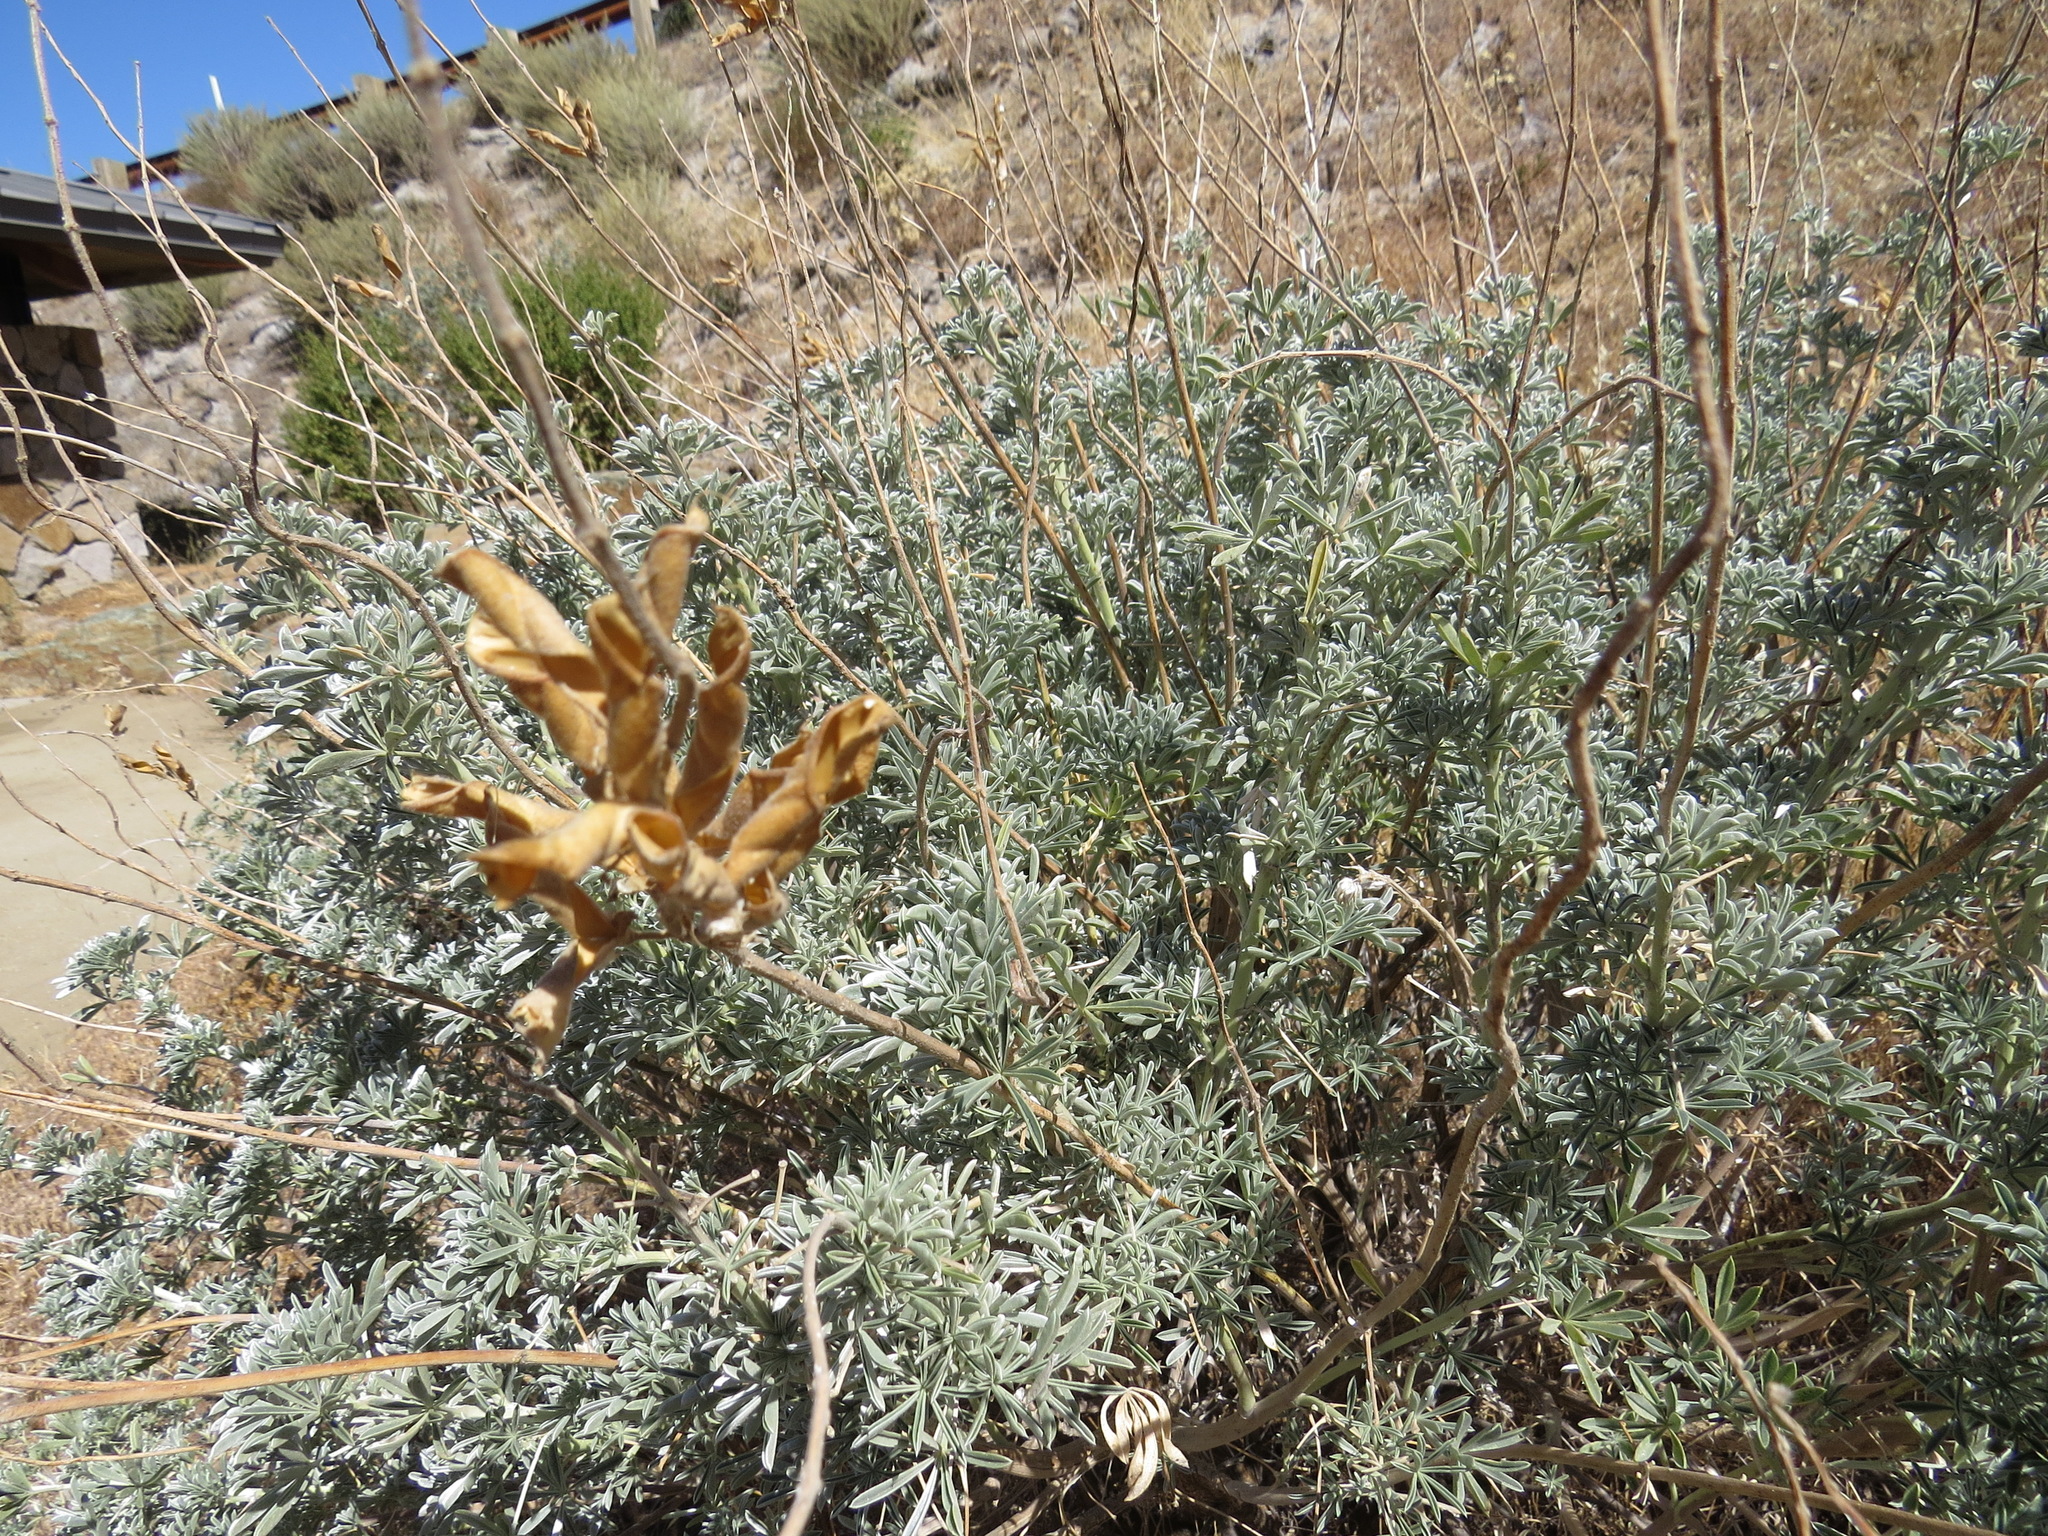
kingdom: Plantae
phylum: Tracheophyta
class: Magnoliopsida
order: Fabales
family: Fabaceae
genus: Lupinus
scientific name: Lupinus albifrons
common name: Foothill lupine
